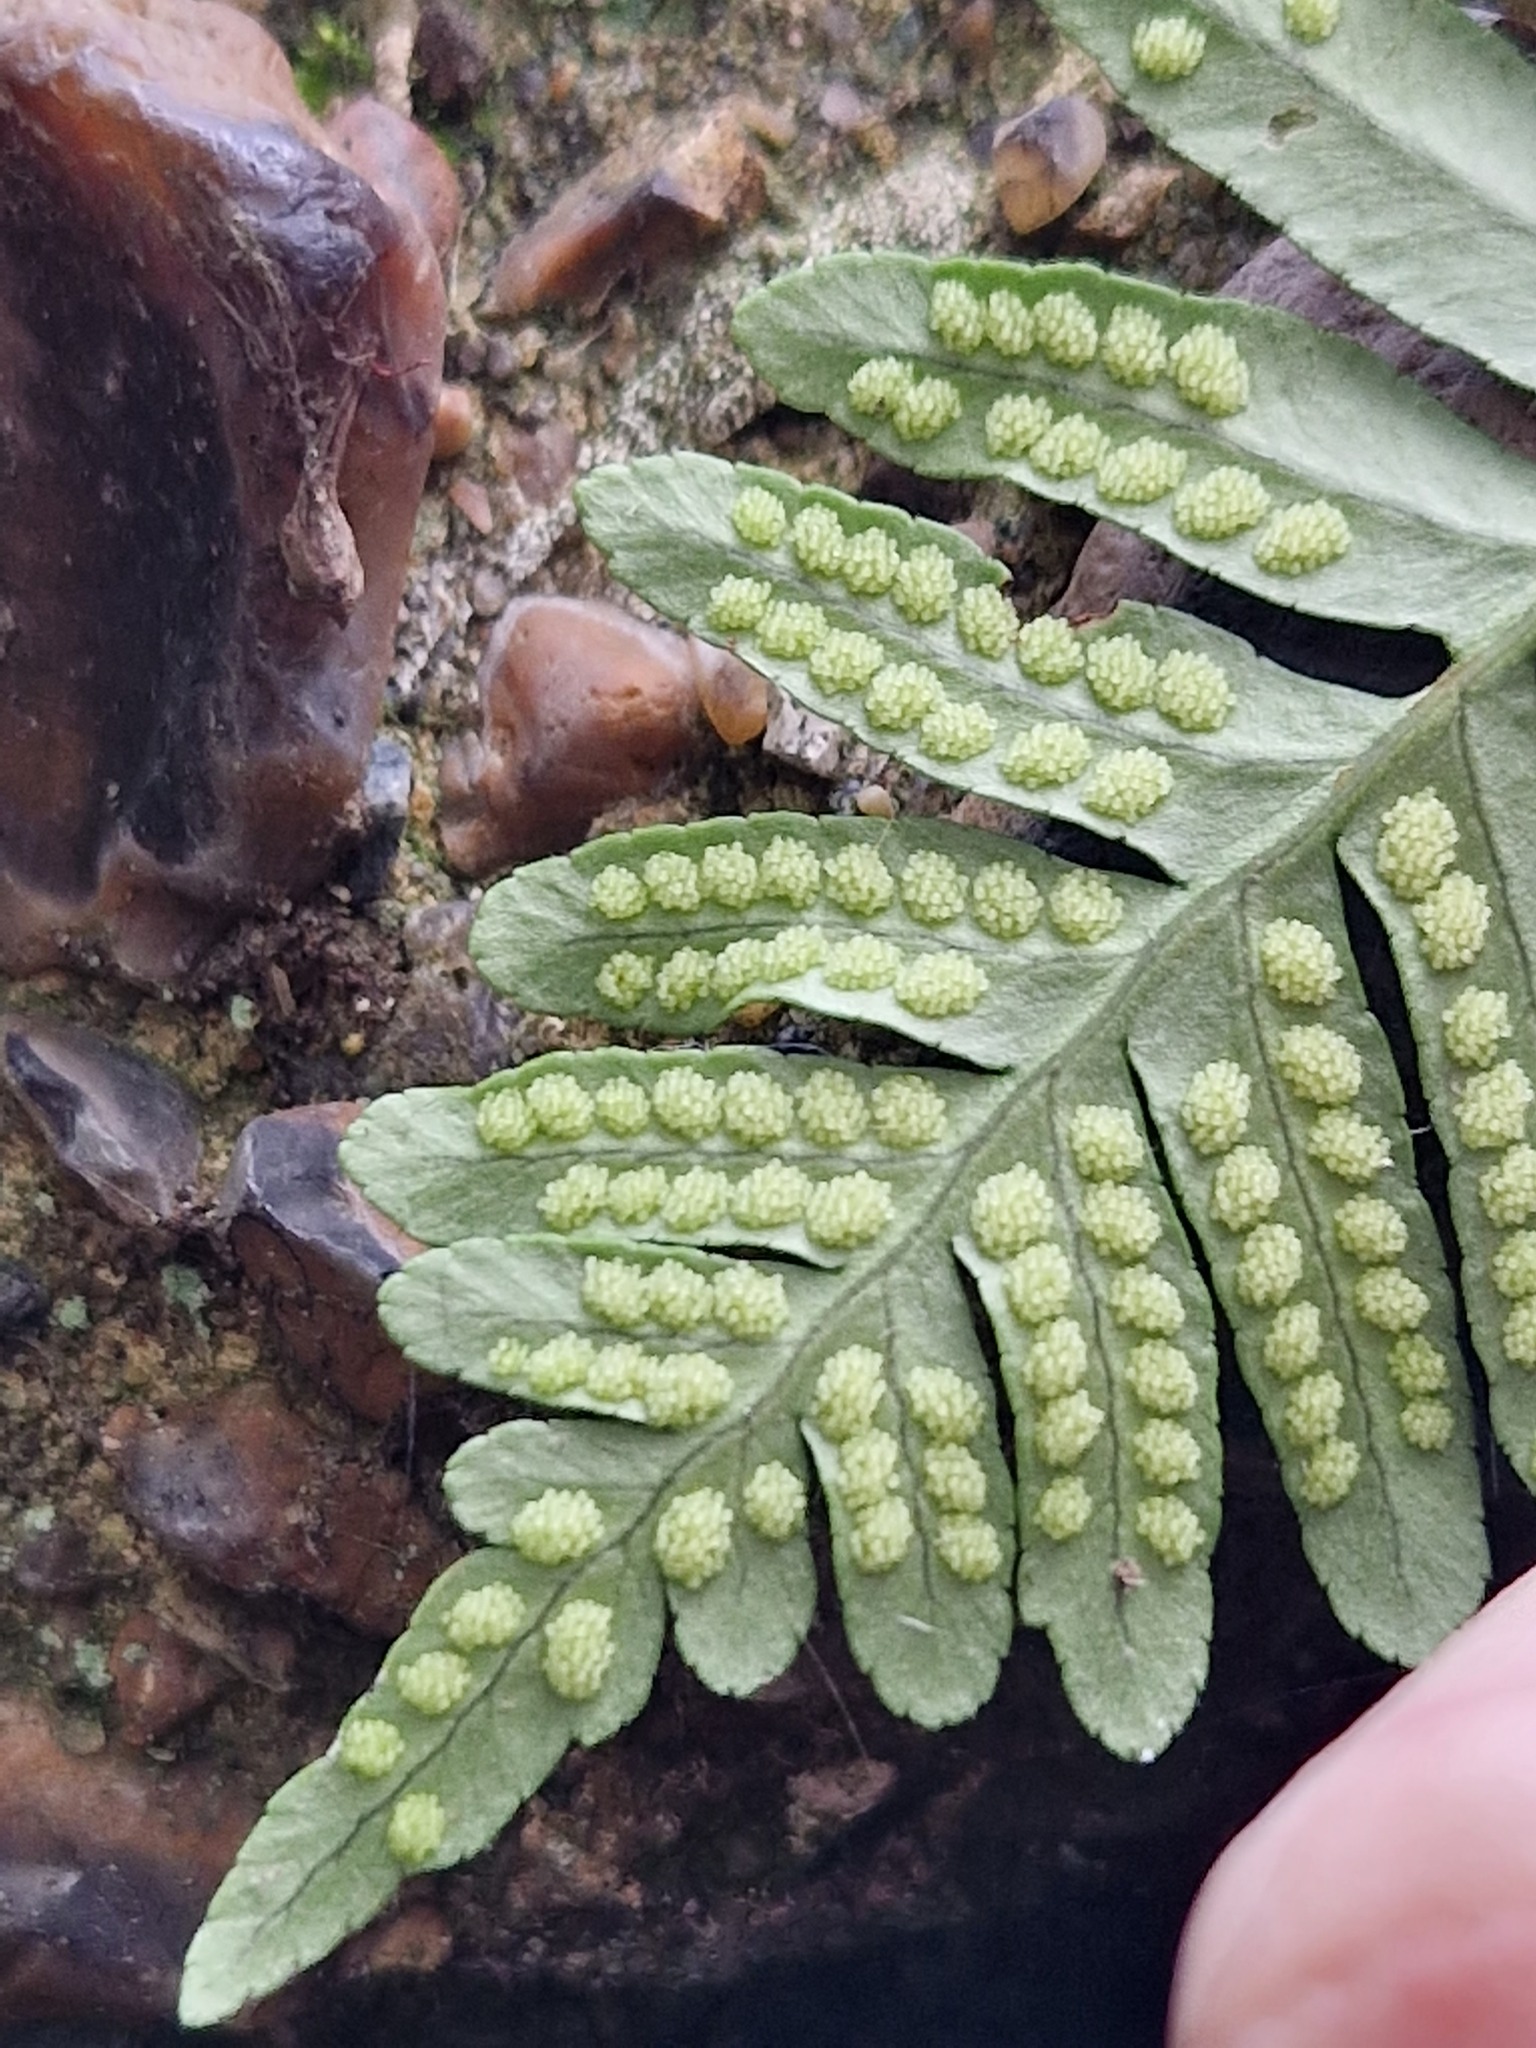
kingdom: Plantae
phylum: Tracheophyta
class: Polypodiopsida
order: Polypodiales
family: Polypodiaceae
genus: Polypodium
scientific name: Polypodium interjectum
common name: Intermediate polypody
